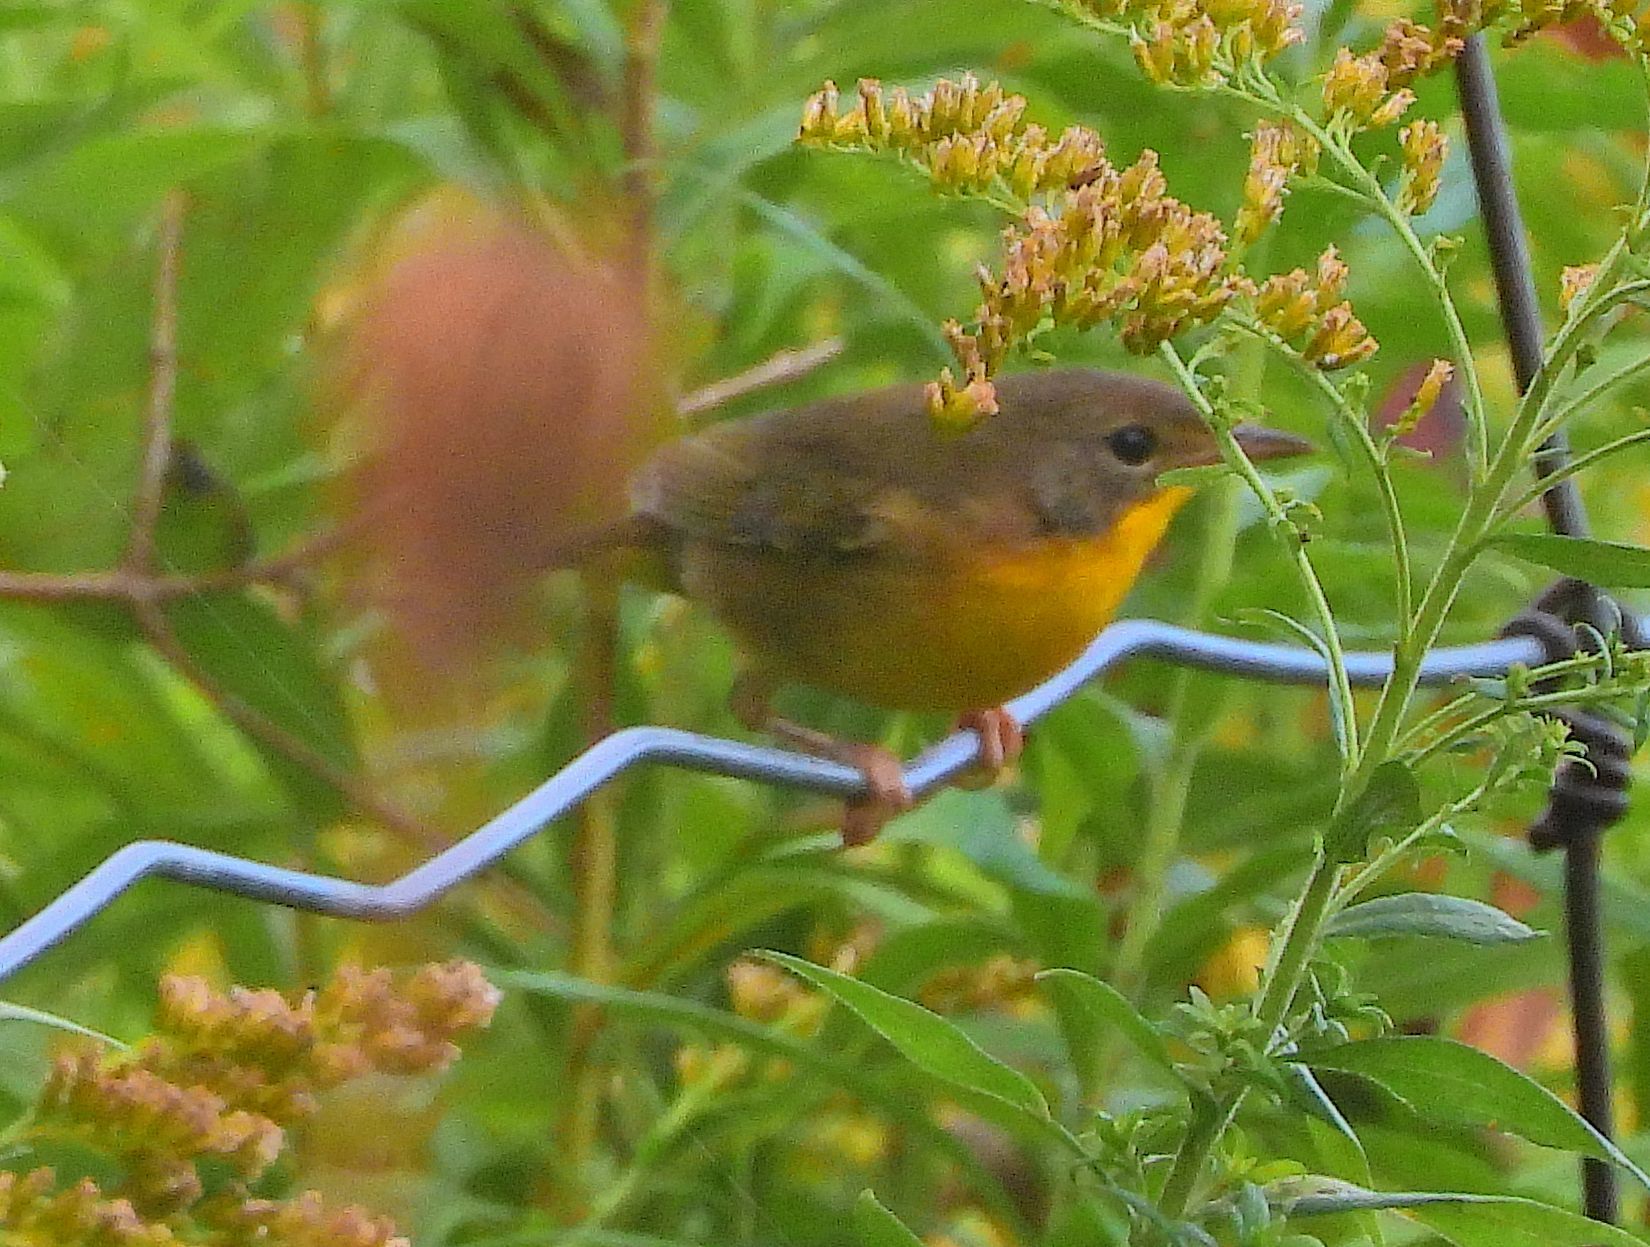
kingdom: Animalia
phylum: Chordata
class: Aves
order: Passeriformes
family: Parulidae
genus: Geothlypis
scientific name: Geothlypis trichas
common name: Common yellowthroat
